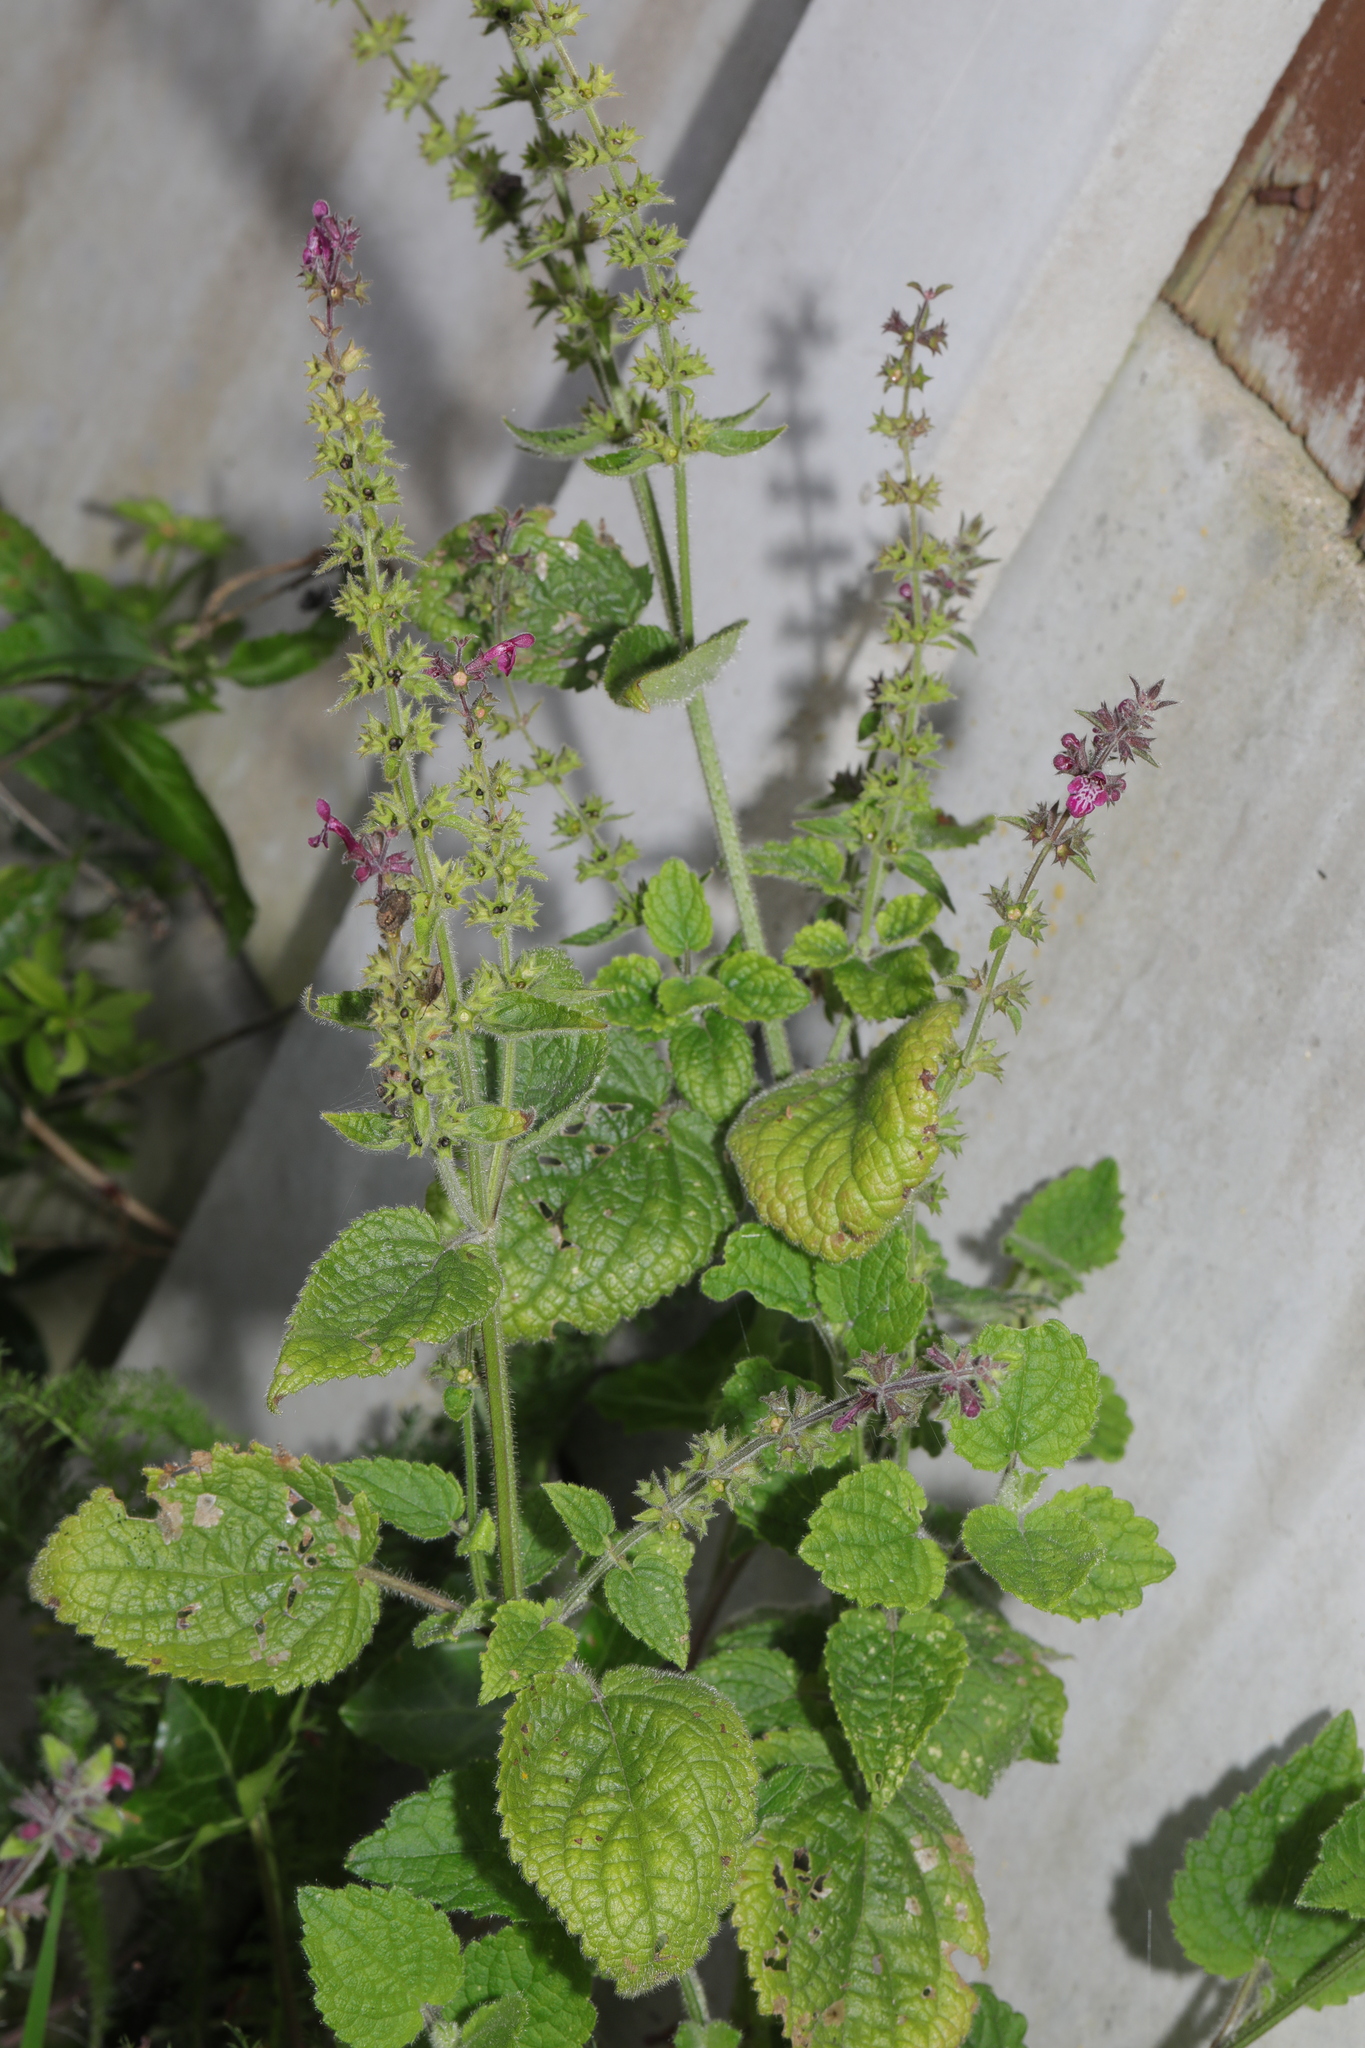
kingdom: Plantae
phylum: Tracheophyta
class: Magnoliopsida
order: Lamiales
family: Lamiaceae
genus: Stachys
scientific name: Stachys sylvatica
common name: Hedge woundwort
